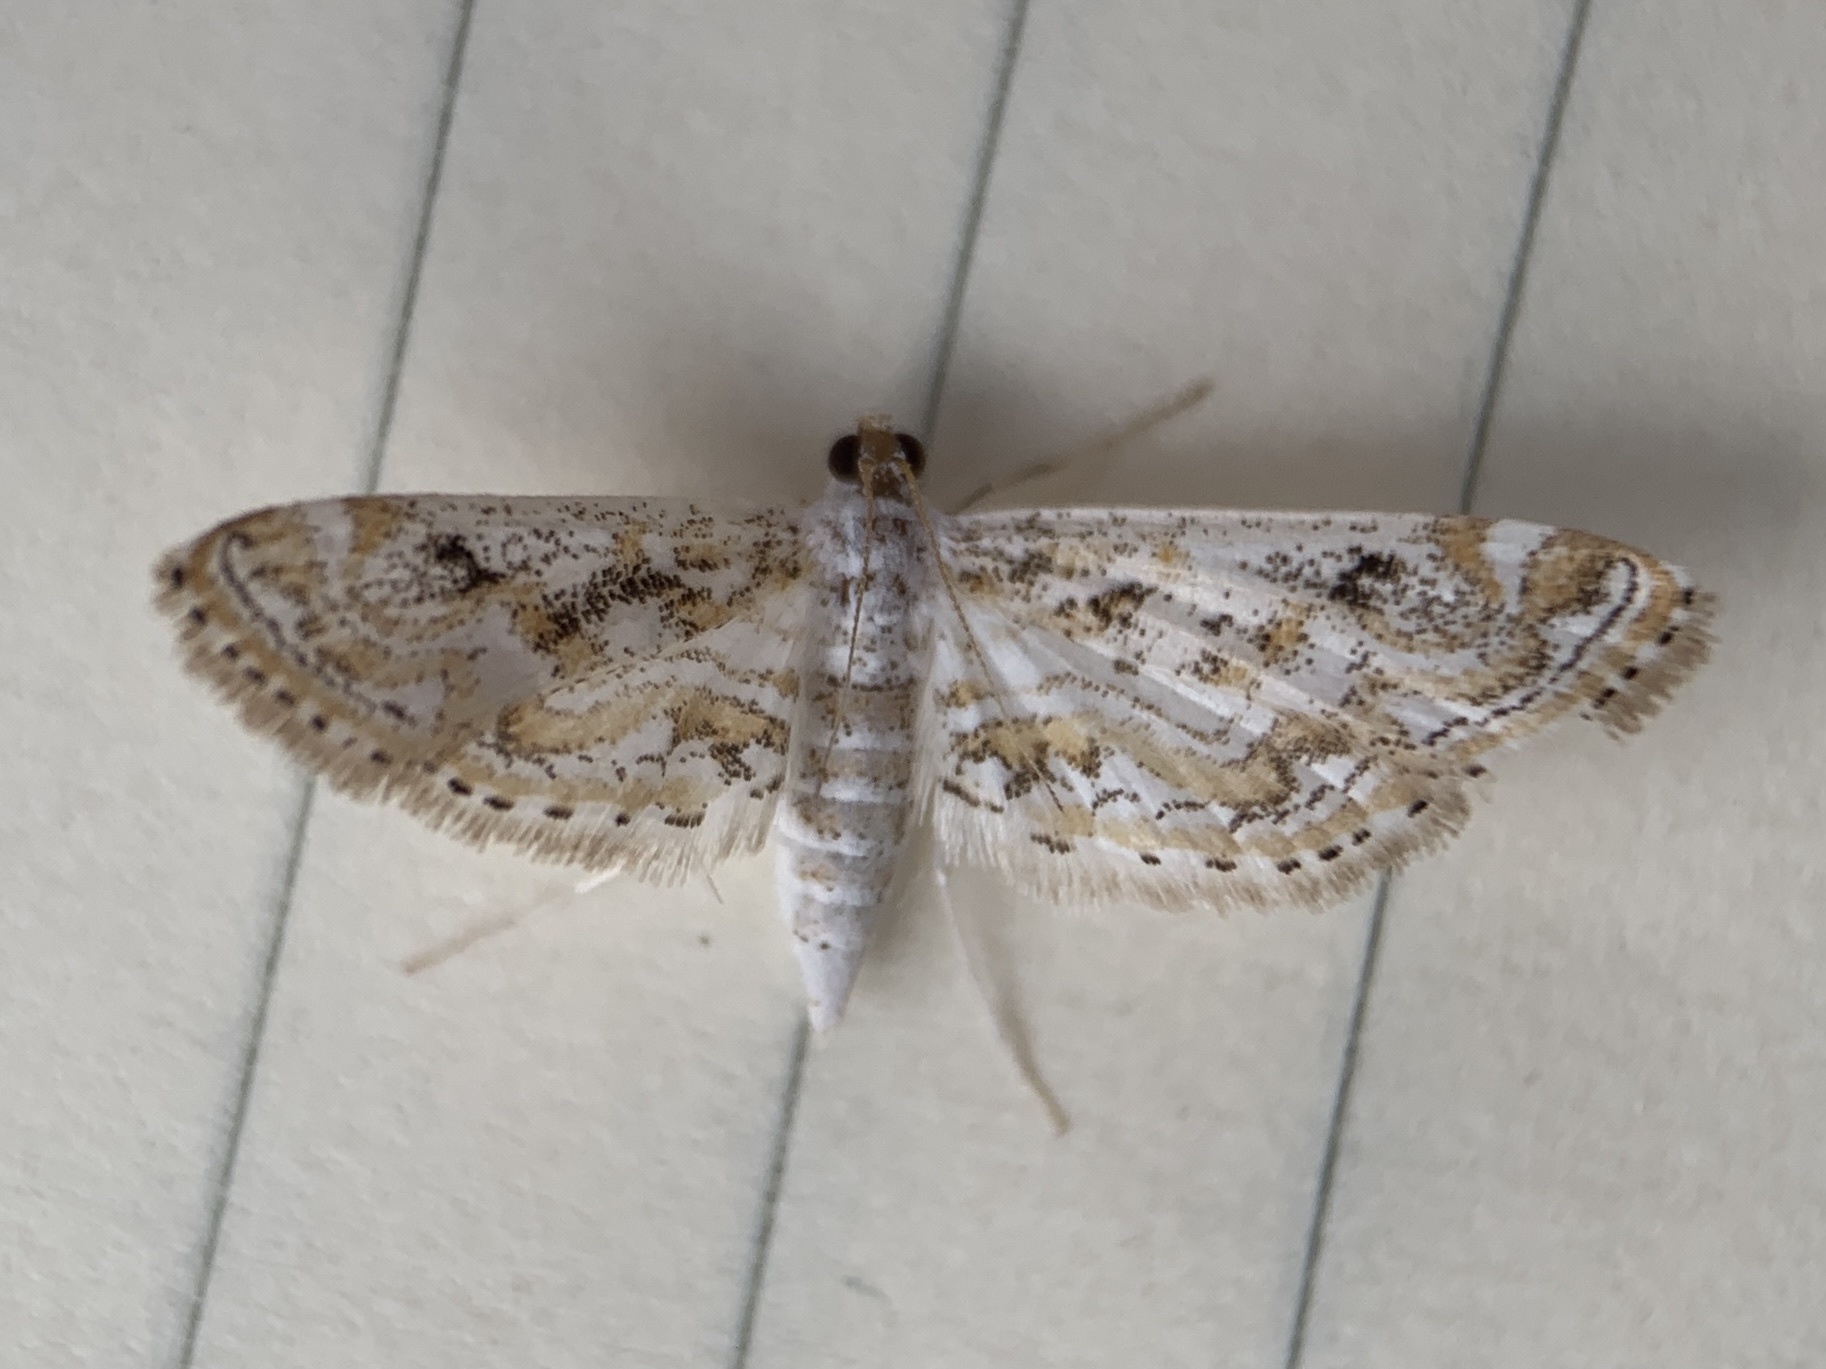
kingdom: Animalia
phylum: Arthropoda
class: Insecta
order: Lepidoptera
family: Crambidae
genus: Parapoynx
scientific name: Parapoynx diminutalis
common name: Hydrilla leafcutter
